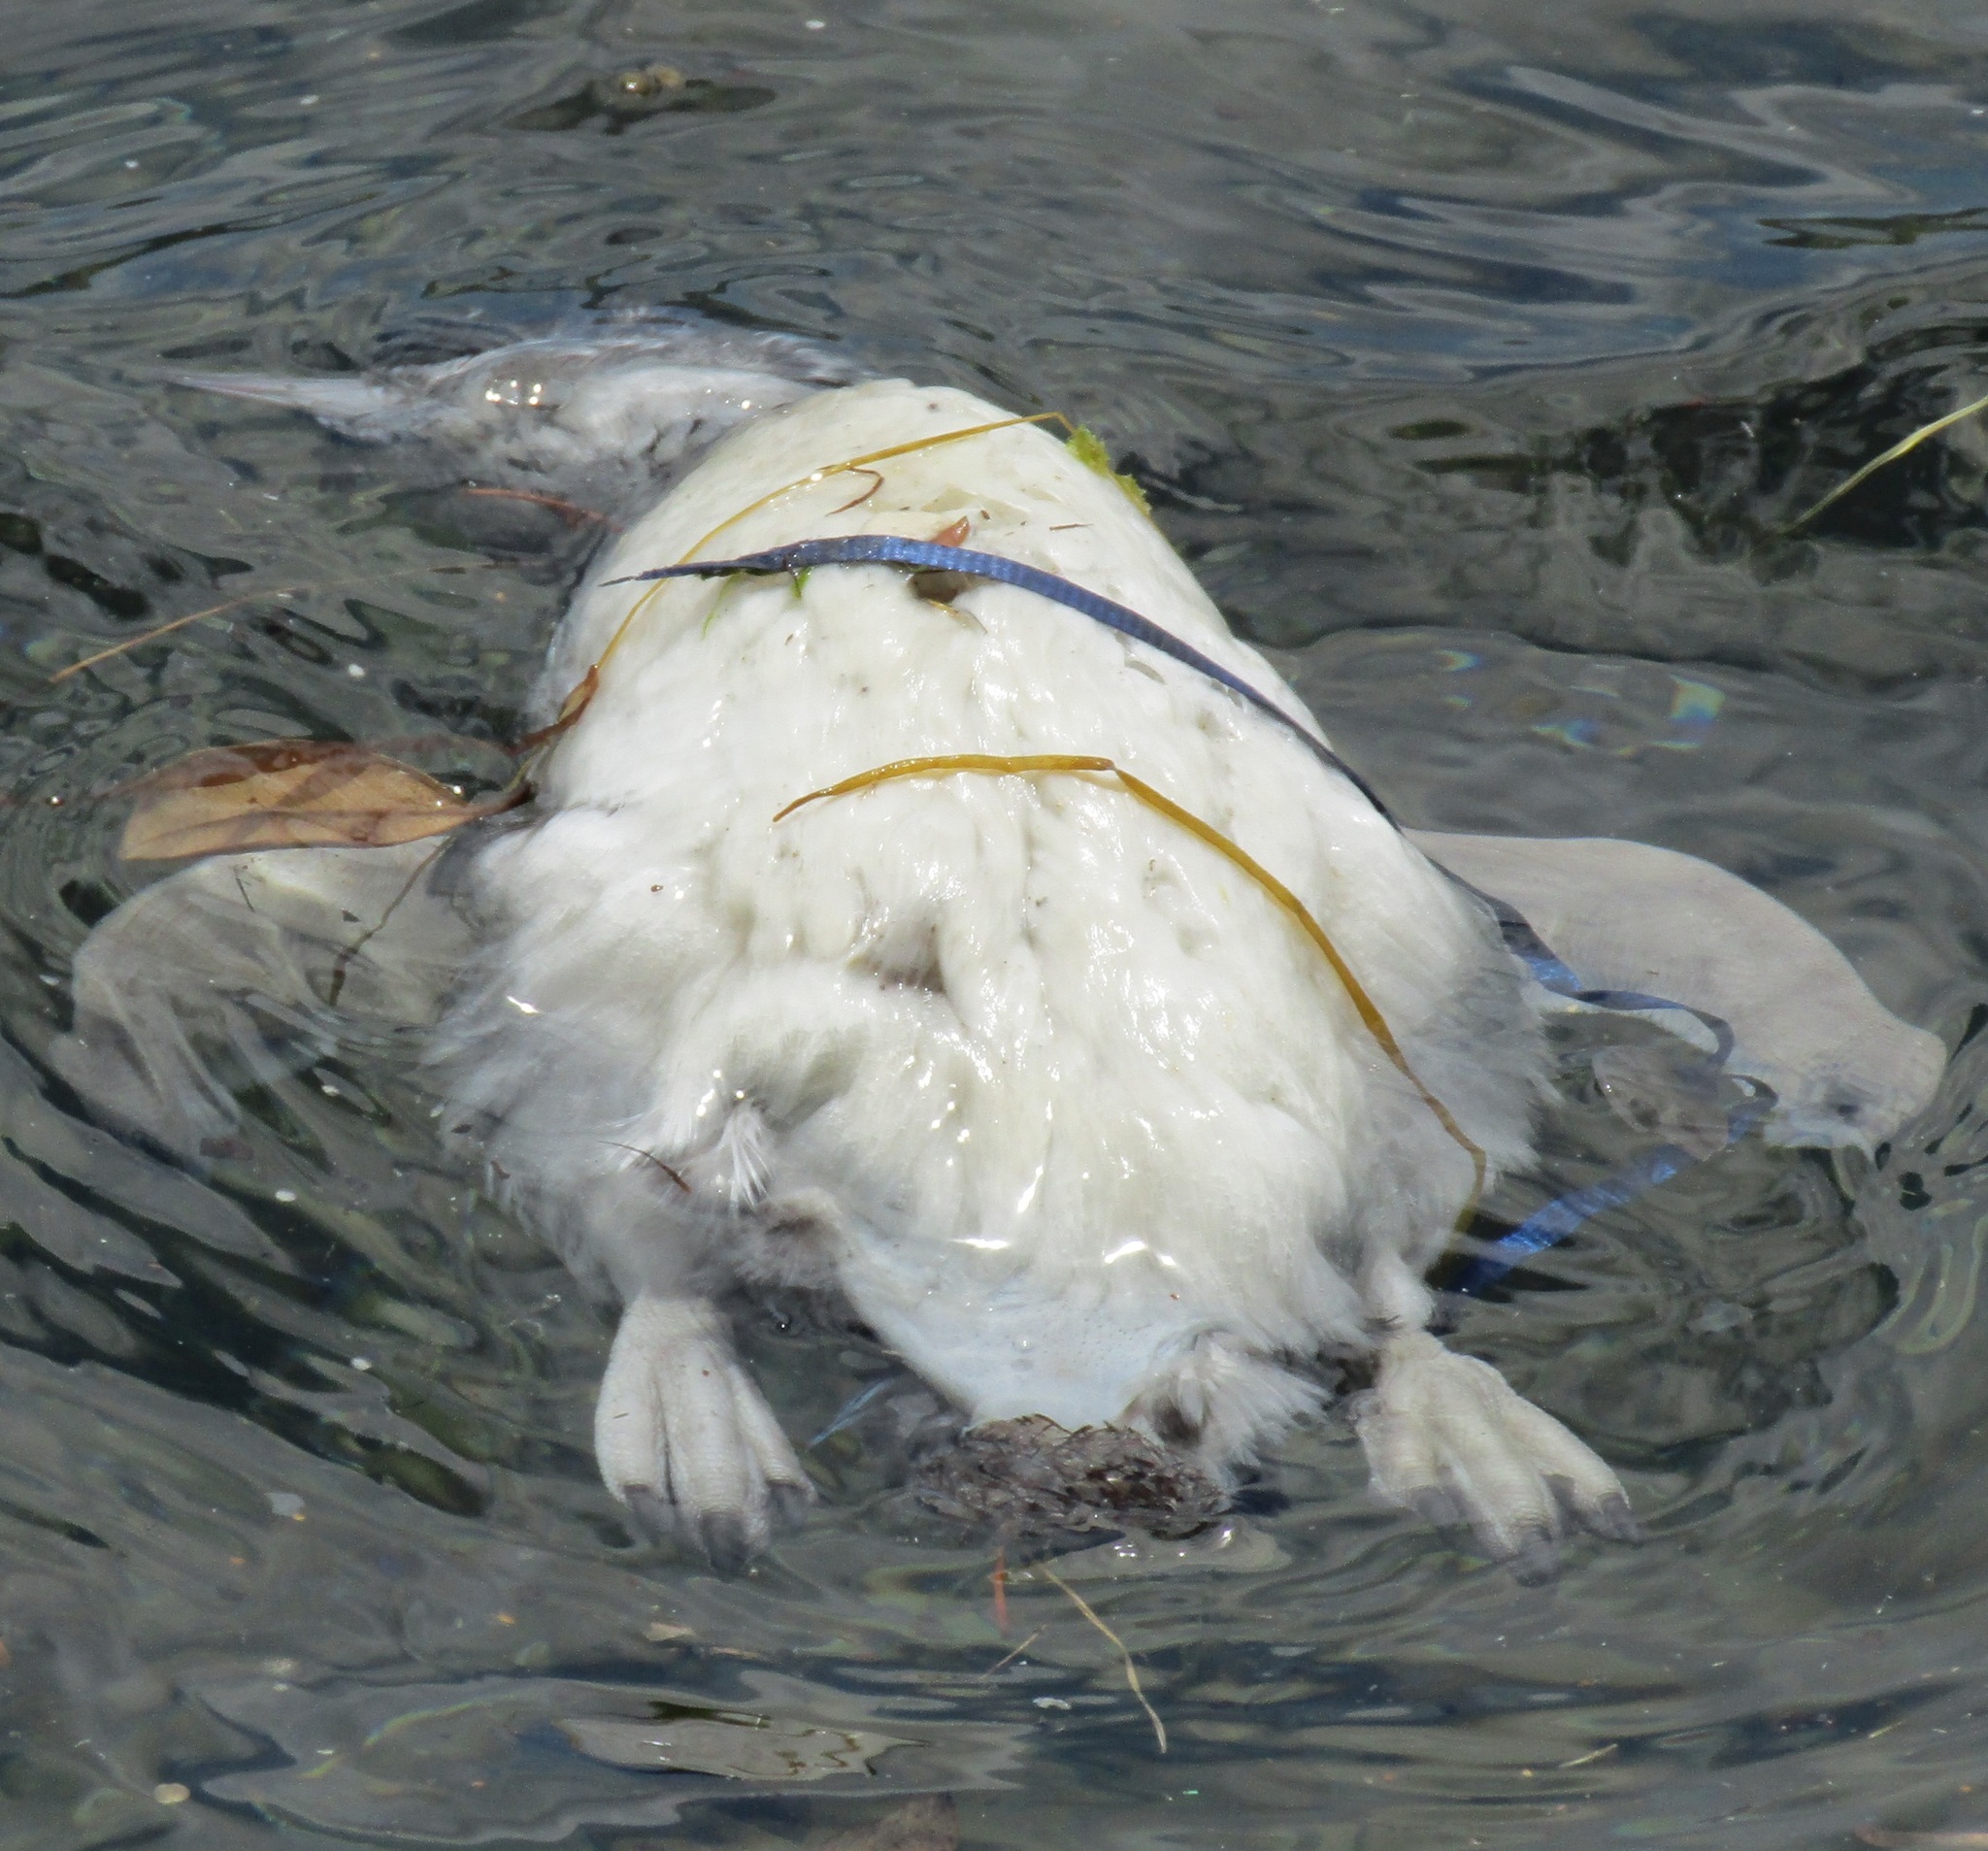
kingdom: Animalia
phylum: Chordata
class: Aves
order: Sphenisciformes
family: Spheniscidae
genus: Eudyptula
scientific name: Eudyptula minor
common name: Little penguin
